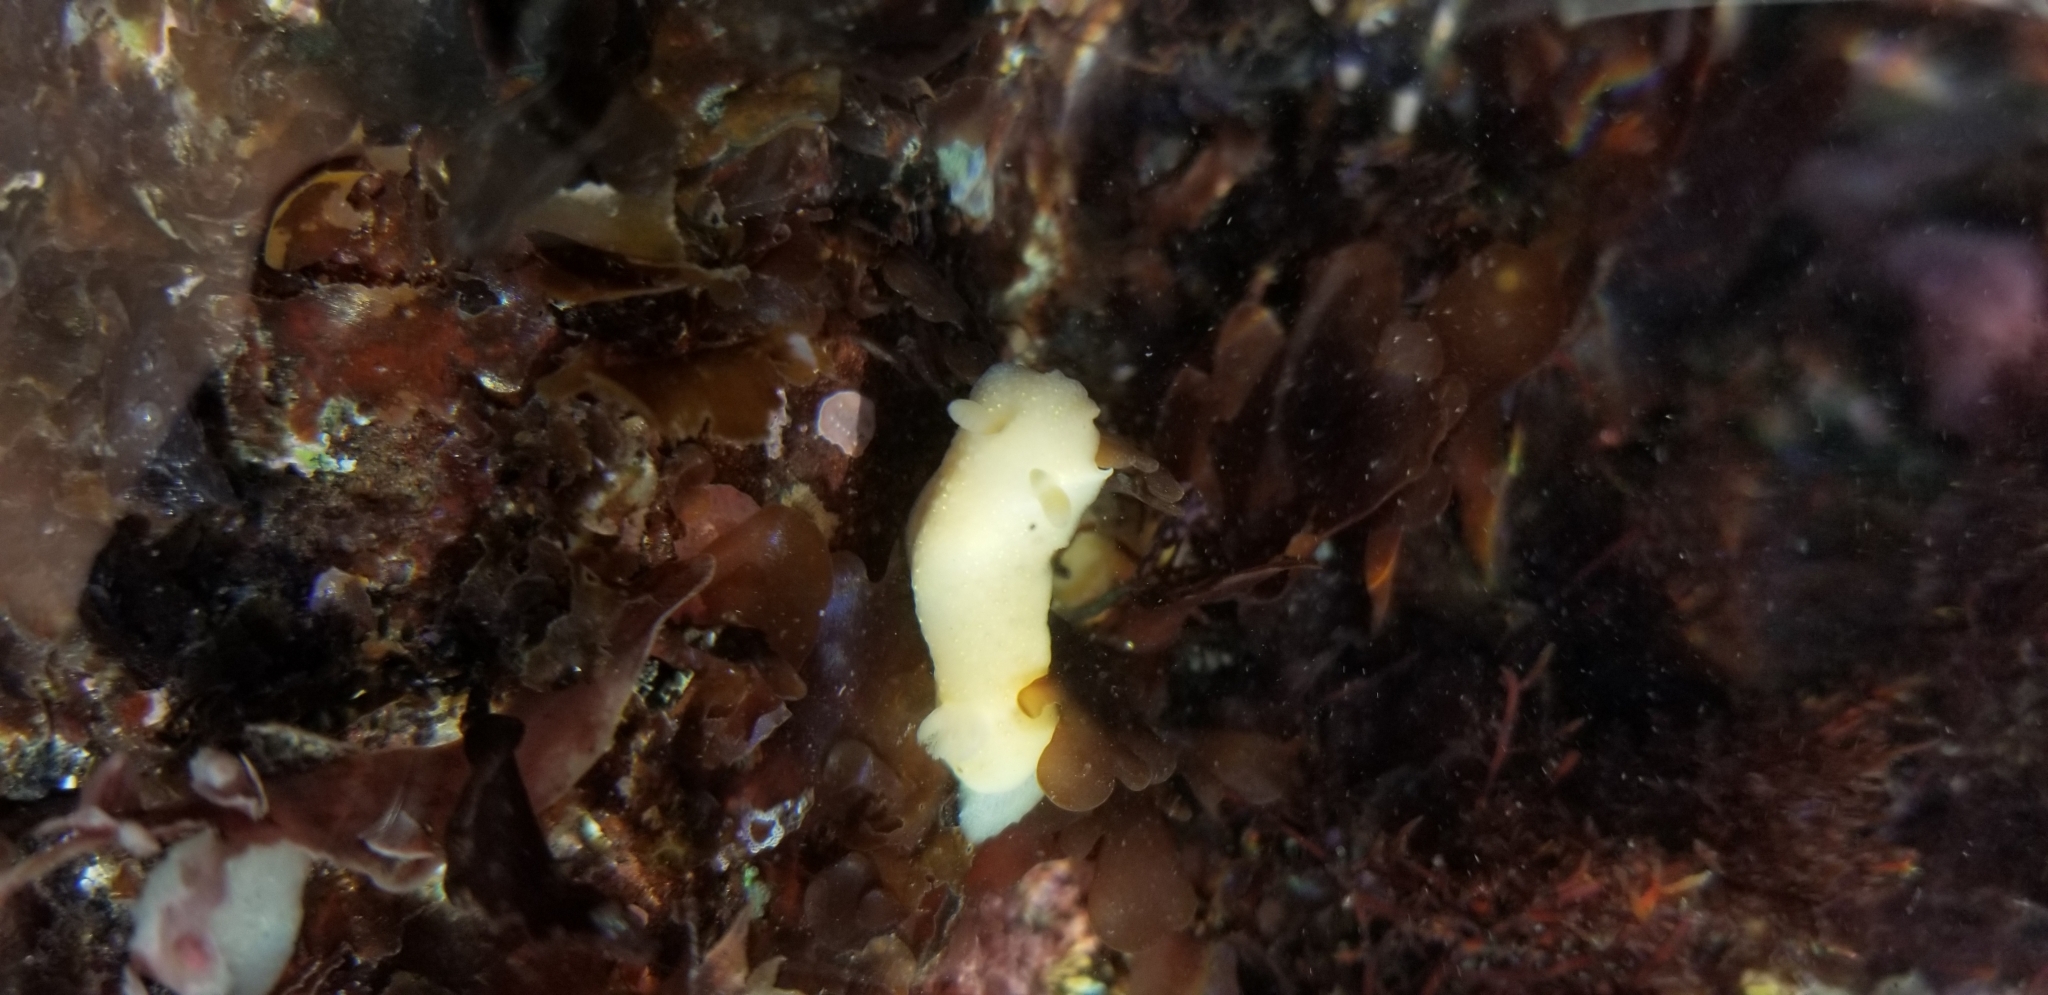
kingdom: Animalia
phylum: Mollusca
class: Gastropoda
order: Nudibranchia
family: Cadlinidae
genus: Cadlina
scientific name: Cadlina modesta
